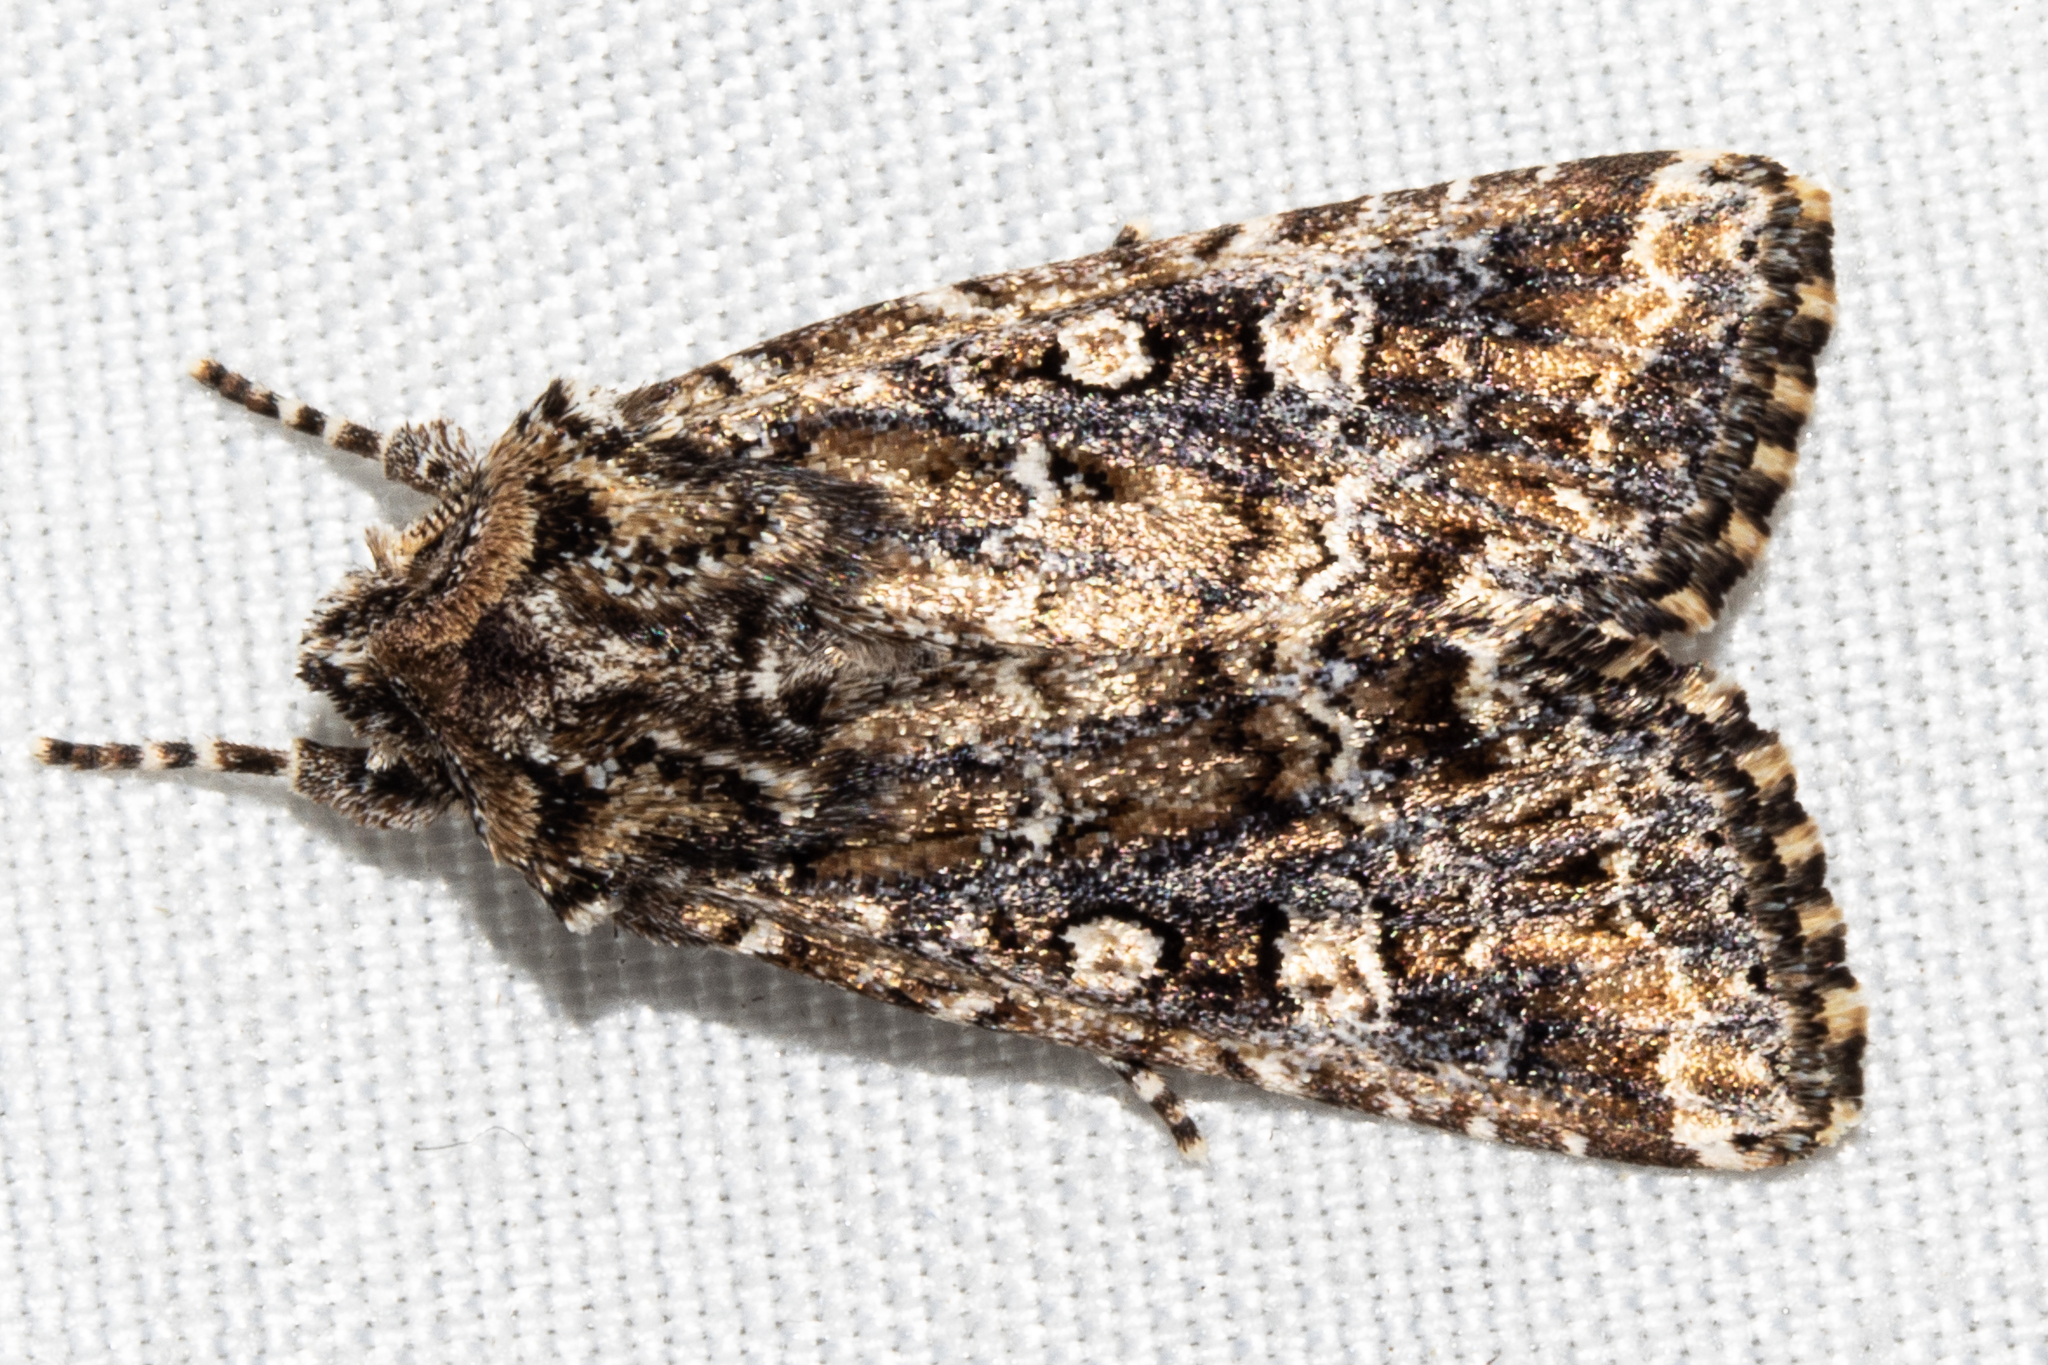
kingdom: Animalia
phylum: Arthropoda
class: Insecta
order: Lepidoptera
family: Noctuidae
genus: Ichneutica
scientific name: Ichneutica lithias
